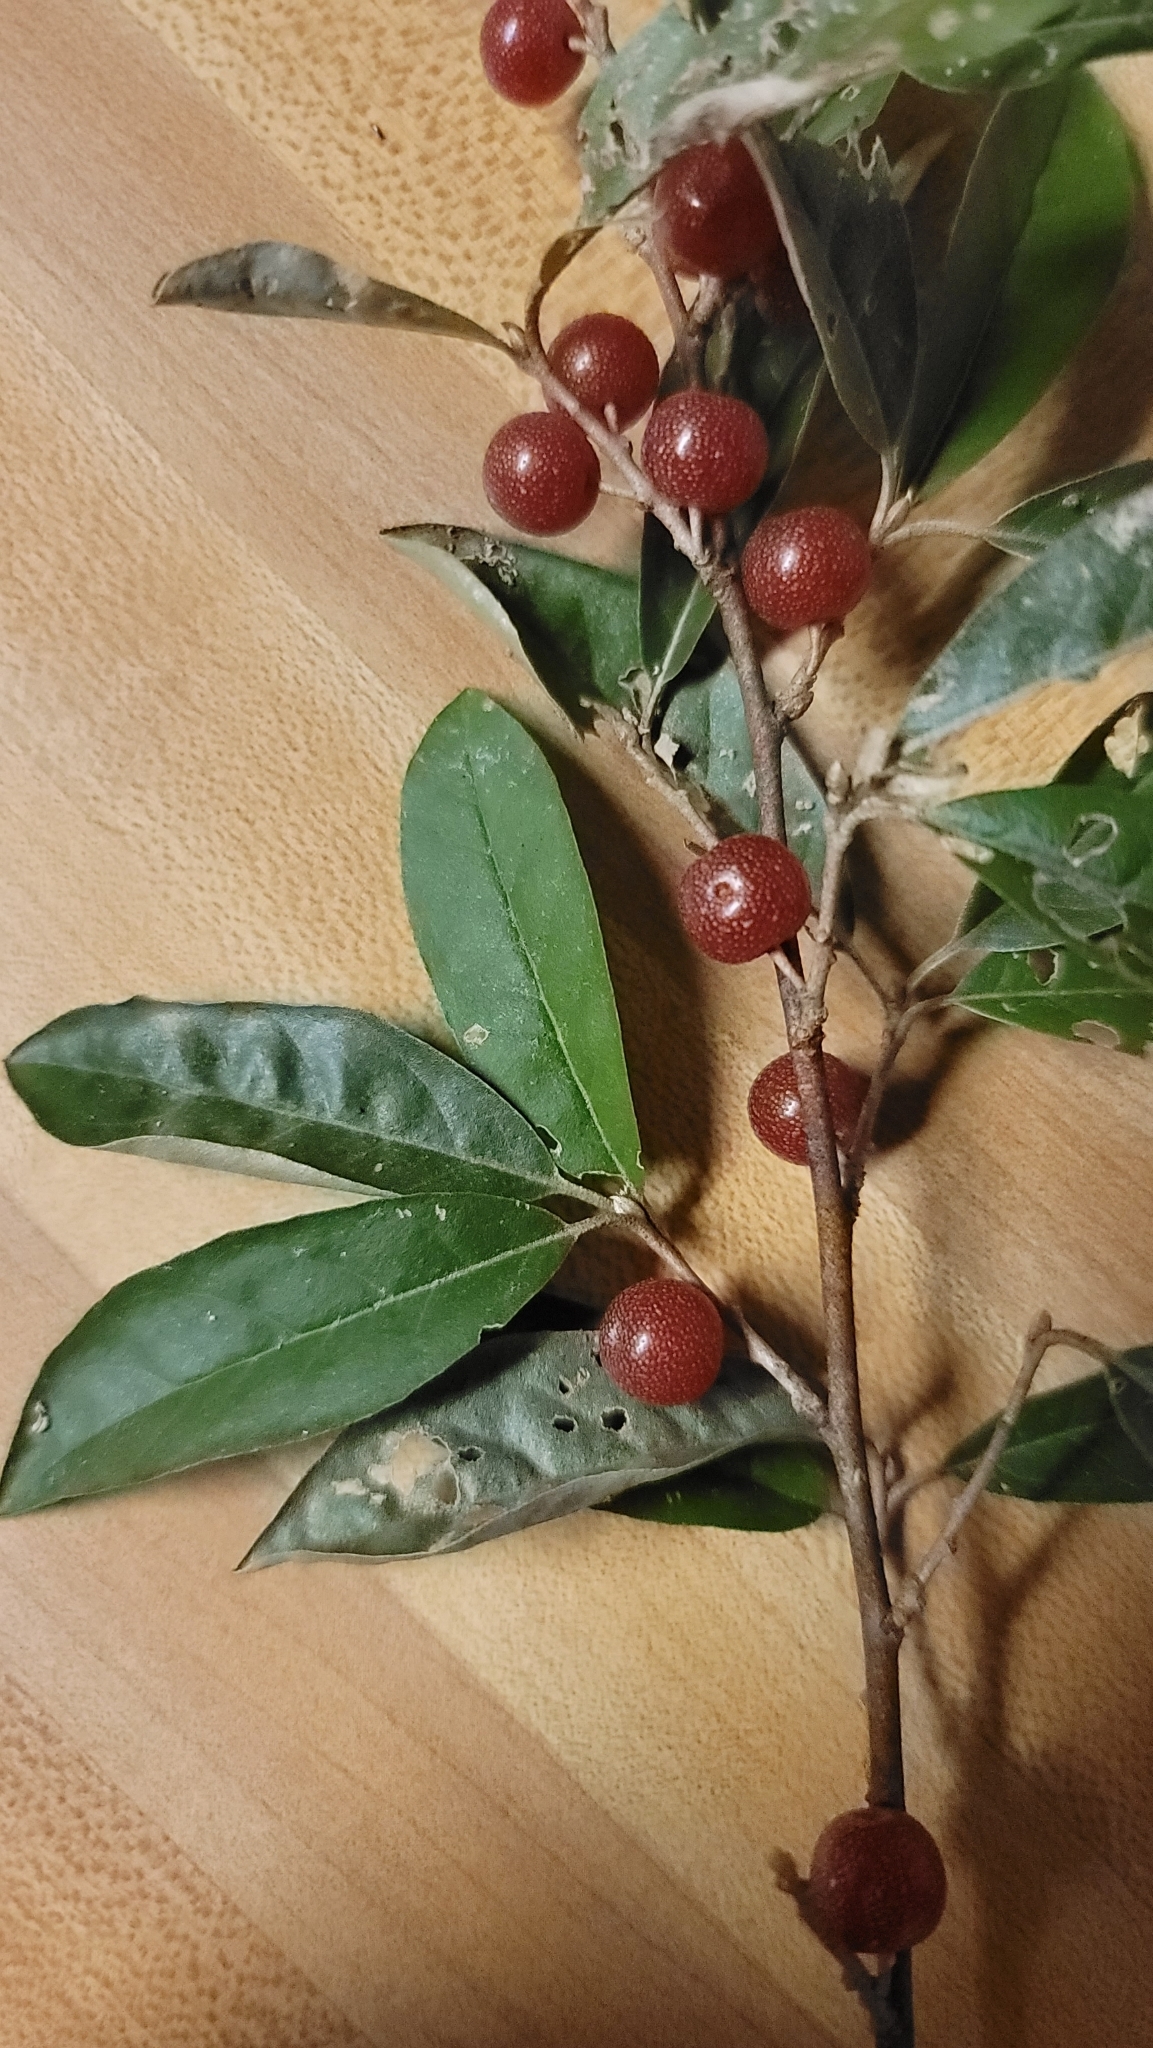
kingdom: Plantae
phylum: Tracheophyta
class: Magnoliopsida
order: Rosales
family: Elaeagnaceae
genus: Elaeagnus
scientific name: Elaeagnus umbellata
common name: Autumn olive
